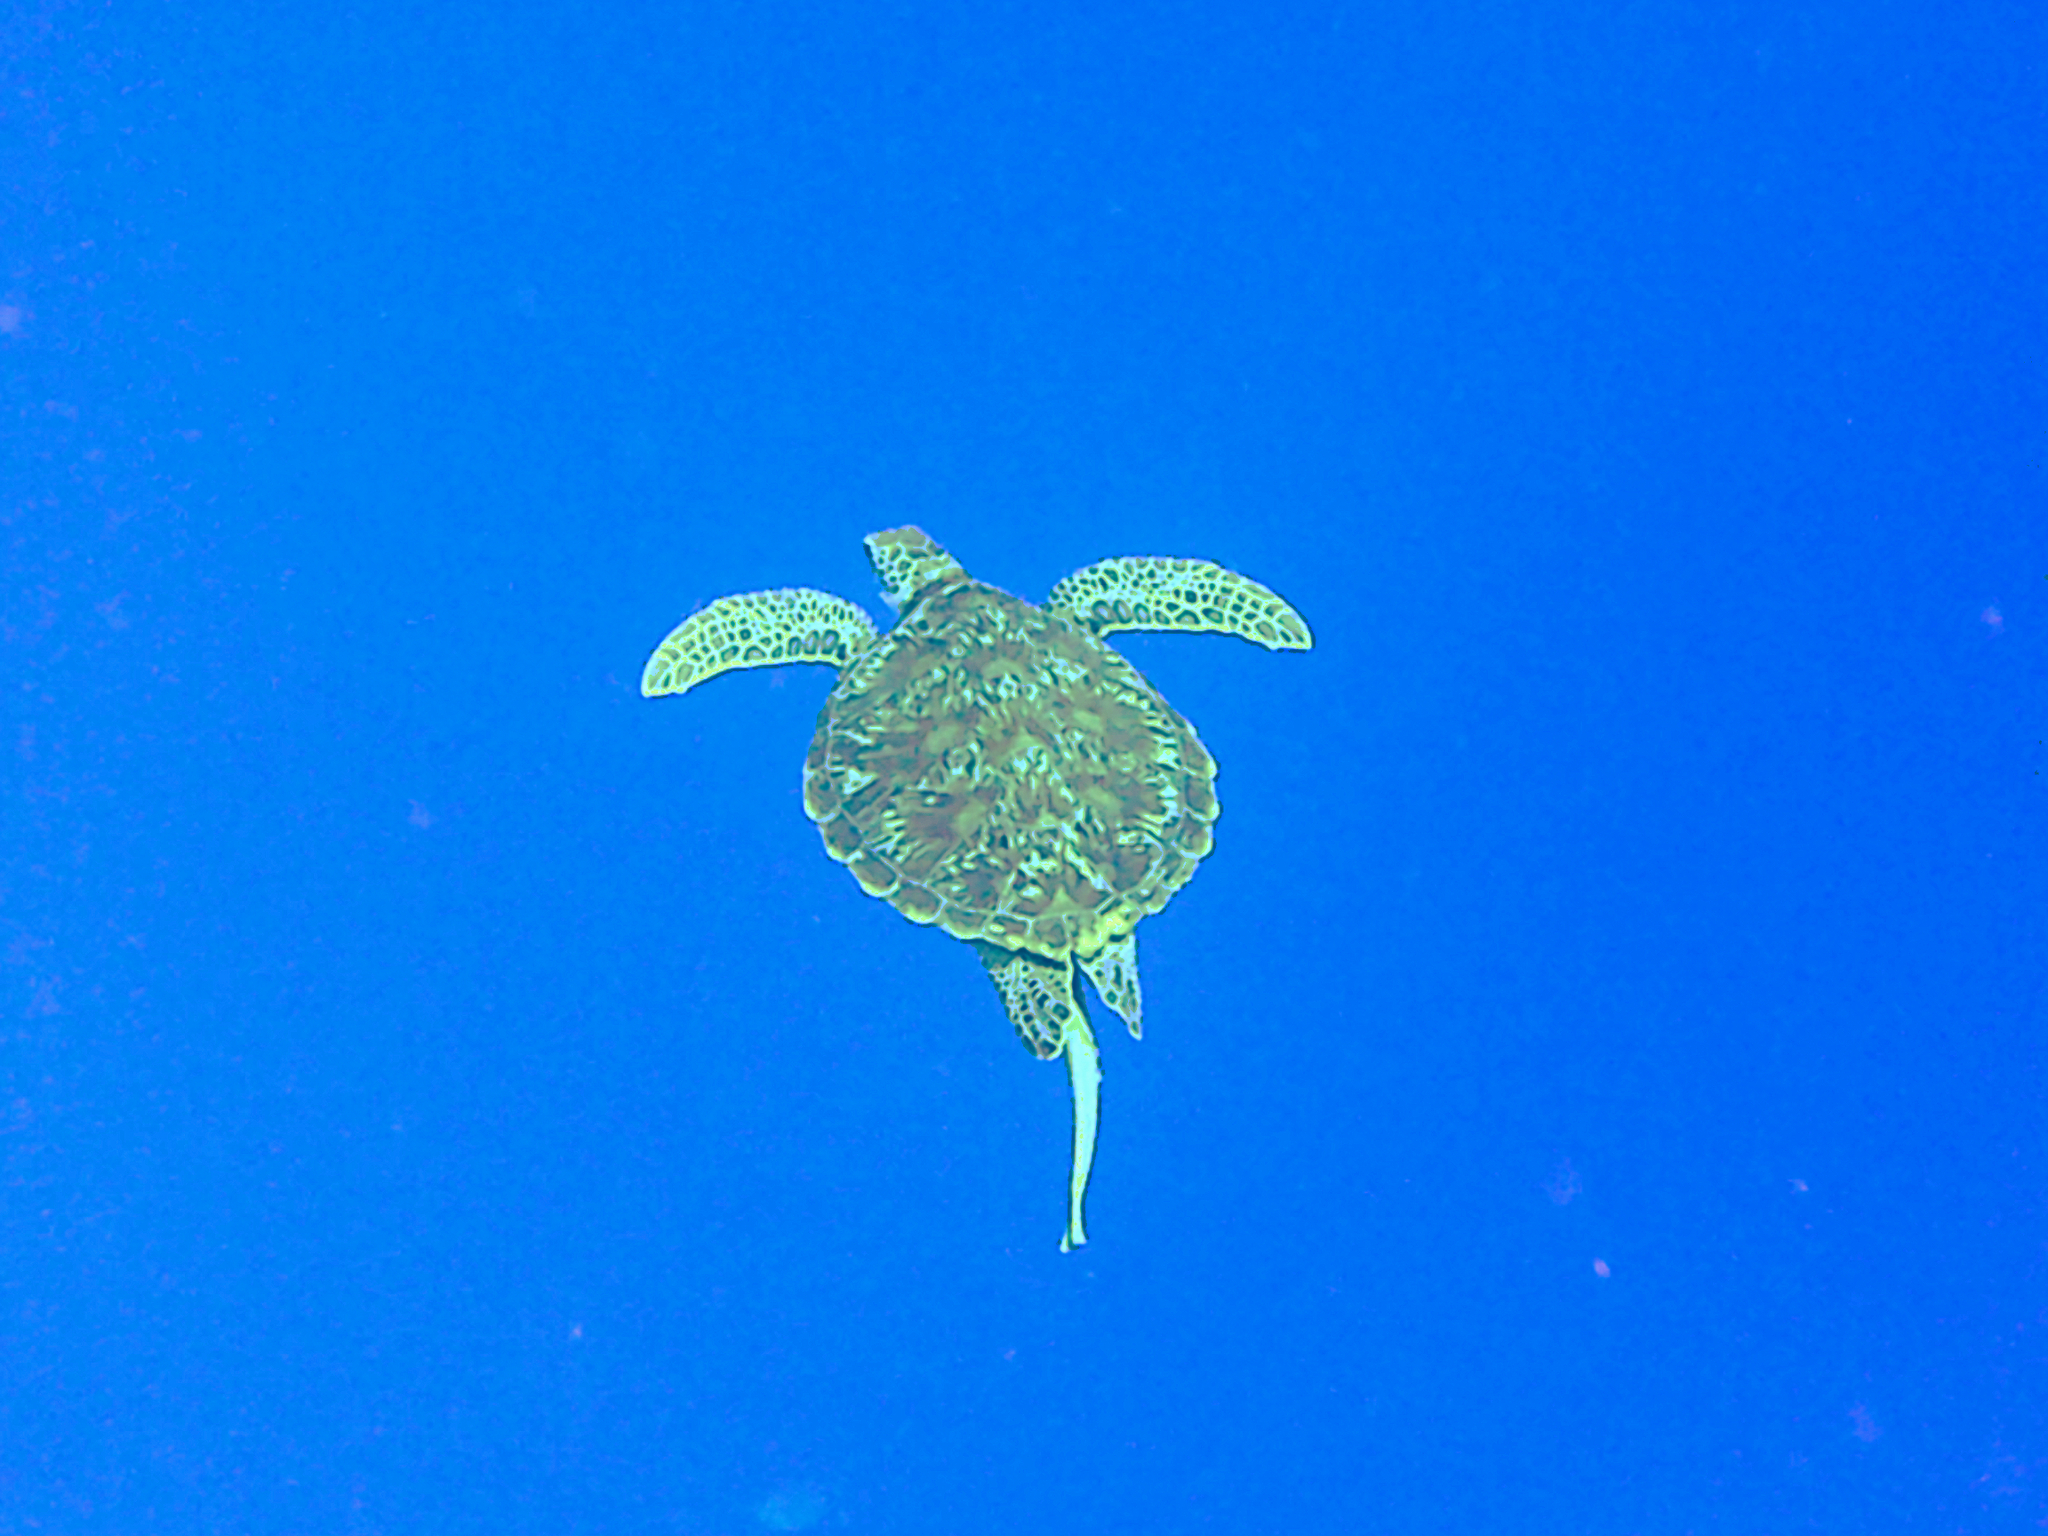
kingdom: Animalia
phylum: Chordata
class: Testudines
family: Cheloniidae
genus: Chelonia
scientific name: Chelonia mydas
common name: Green turtle
